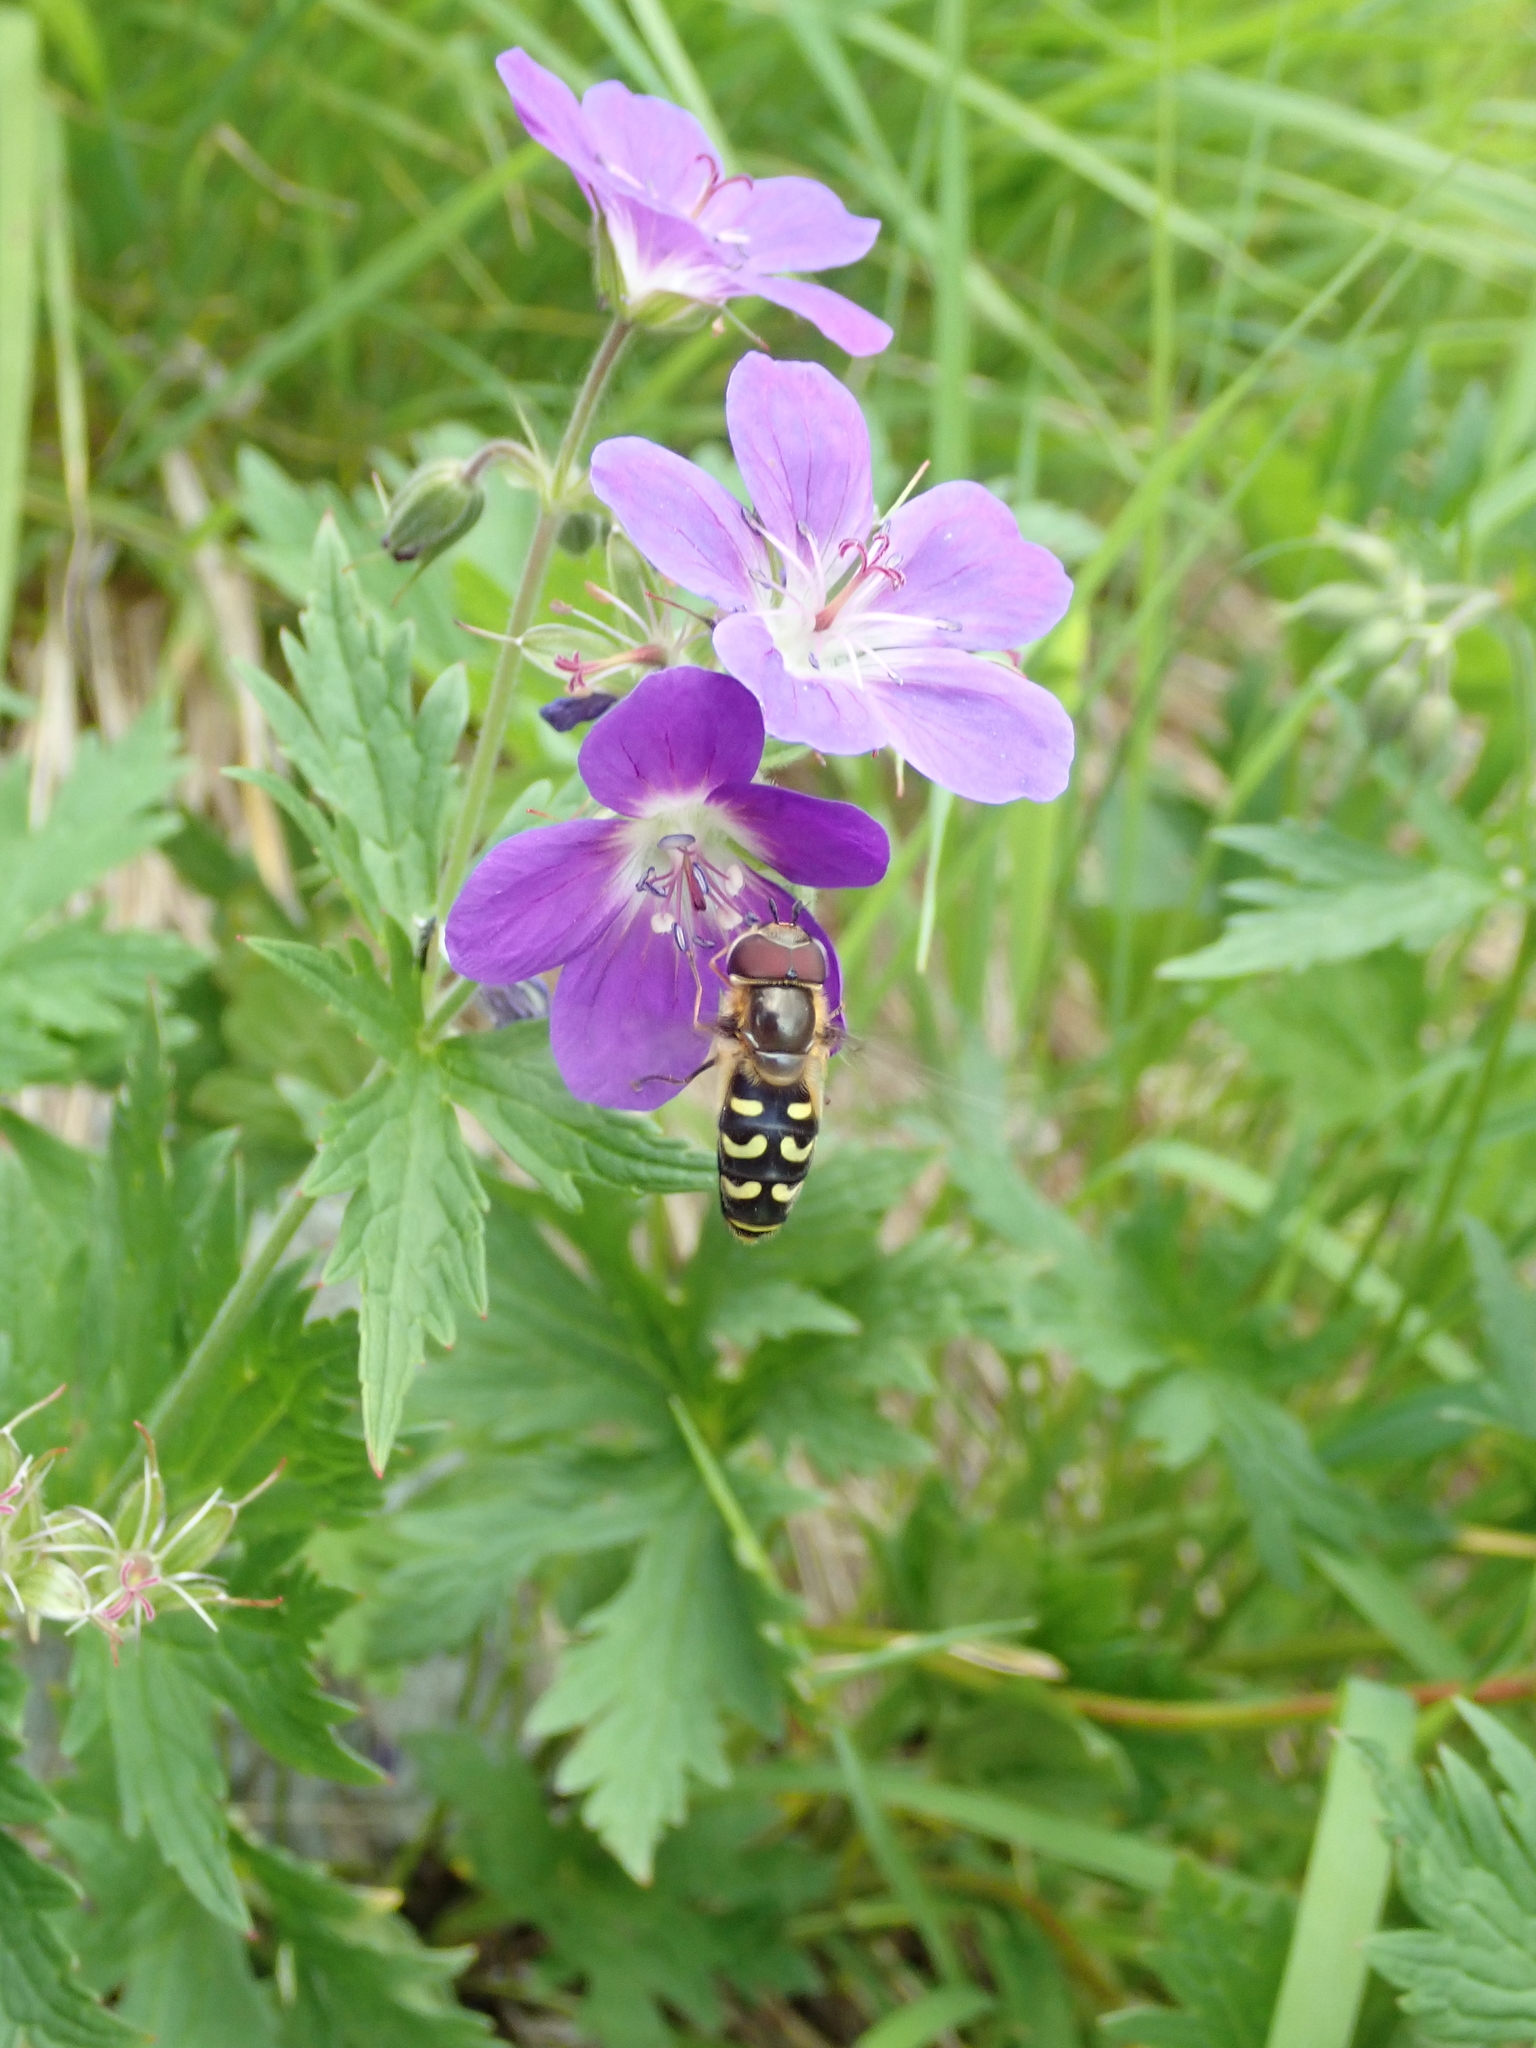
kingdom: Animalia
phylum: Arthropoda
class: Insecta
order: Diptera
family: Syrphidae
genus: Scaeva
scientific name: Scaeva selenitica
